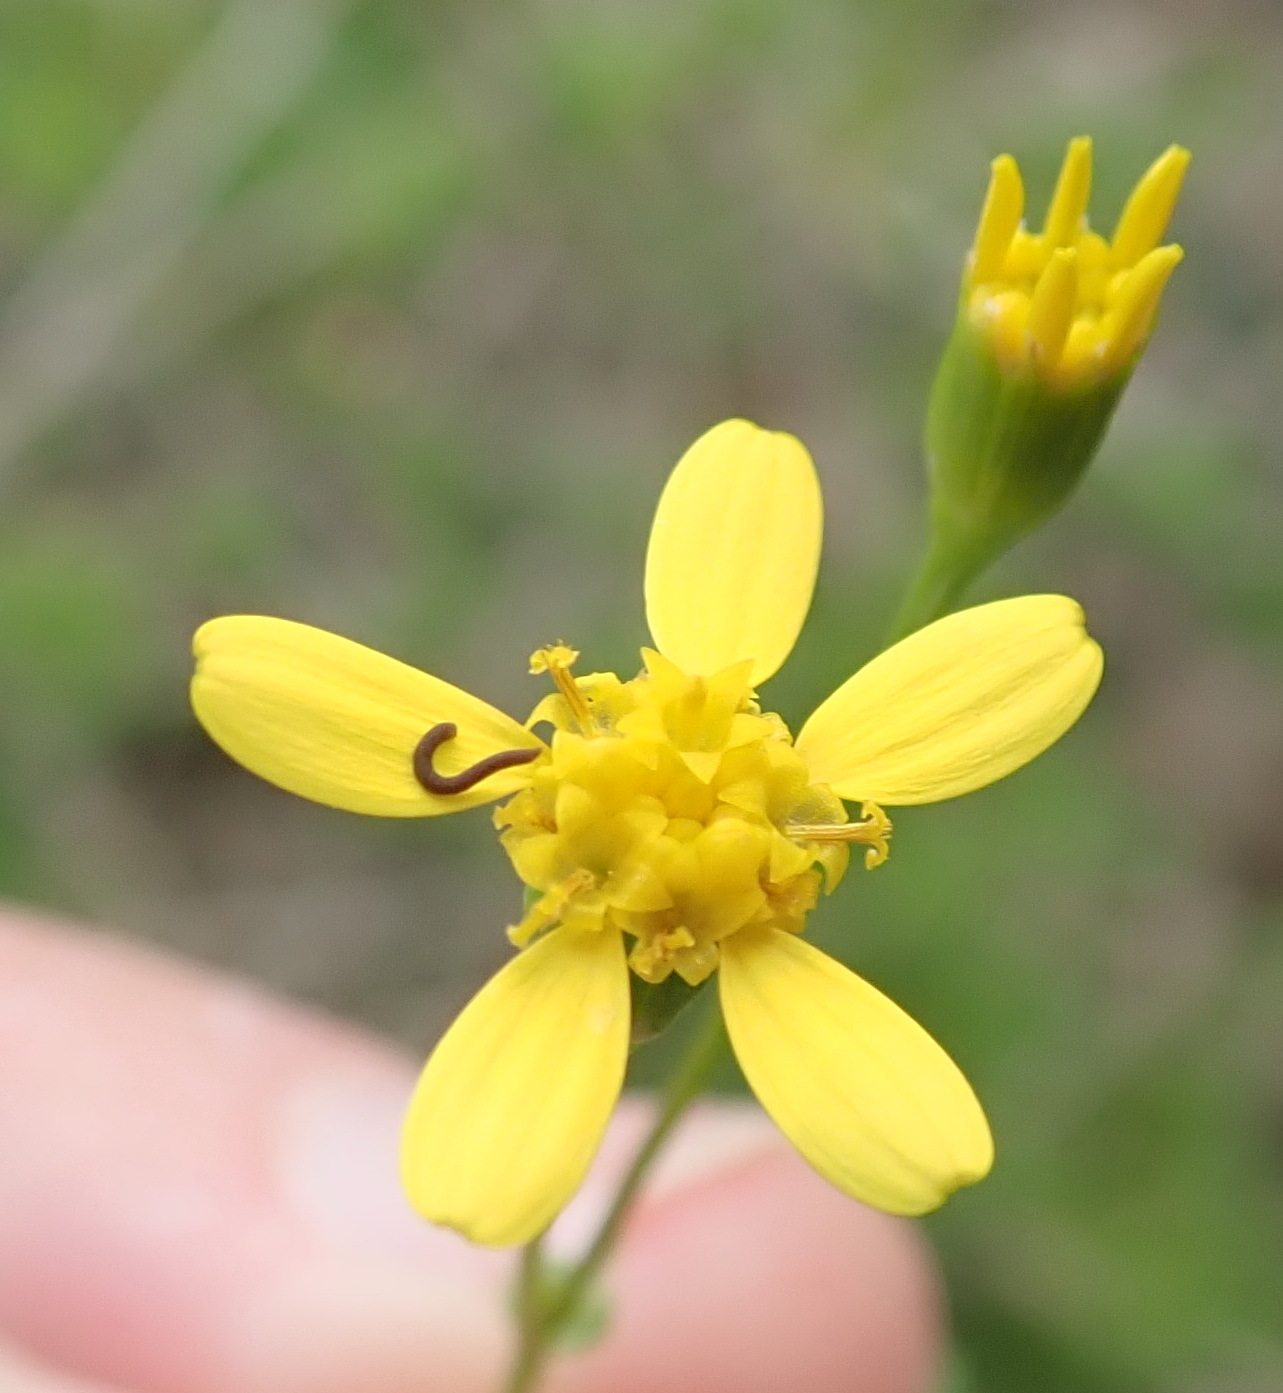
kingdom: Plantae
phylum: Tracheophyta
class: Magnoliopsida
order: Asterales
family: Asteraceae
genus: Cineraria
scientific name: Cineraria lobata
